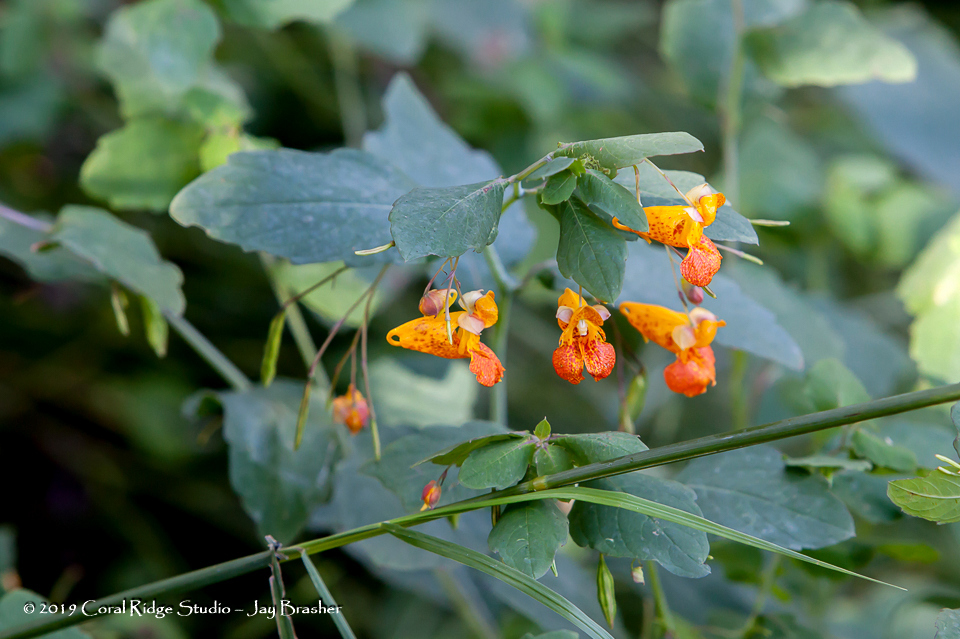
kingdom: Plantae
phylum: Tracheophyta
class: Magnoliopsida
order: Ericales
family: Balsaminaceae
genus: Impatiens
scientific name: Impatiens capensis
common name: Orange balsam
